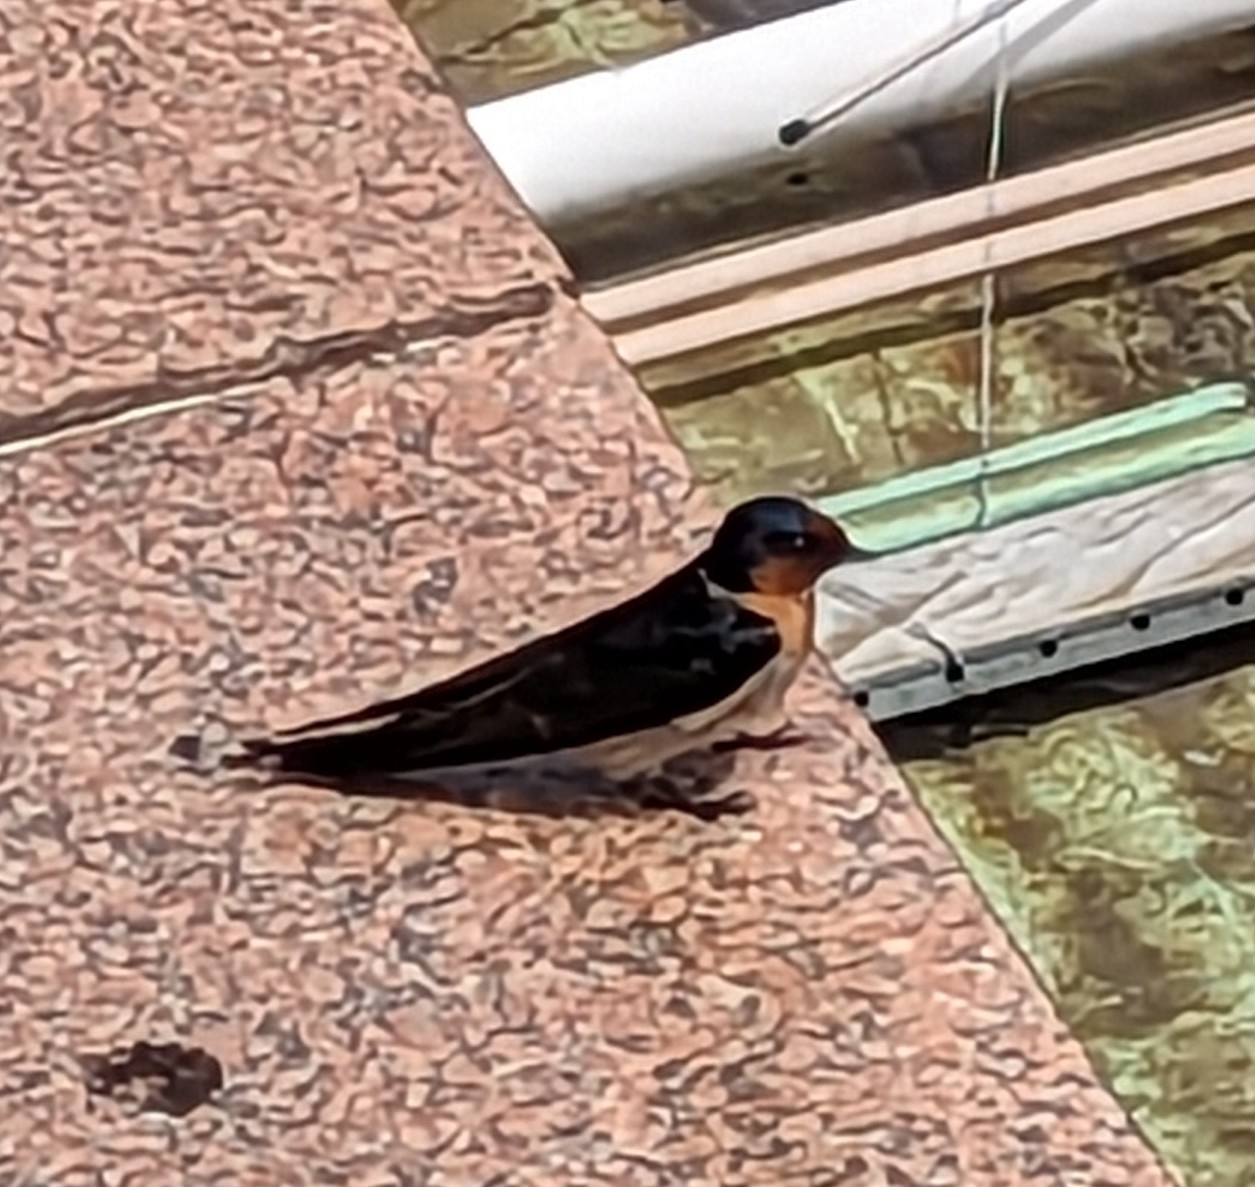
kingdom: Animalia
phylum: Chordata
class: Aves
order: Passeriformes
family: Hirundinidae
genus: Hirundo
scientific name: Hirundo neoxena
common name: Welcome swallow
